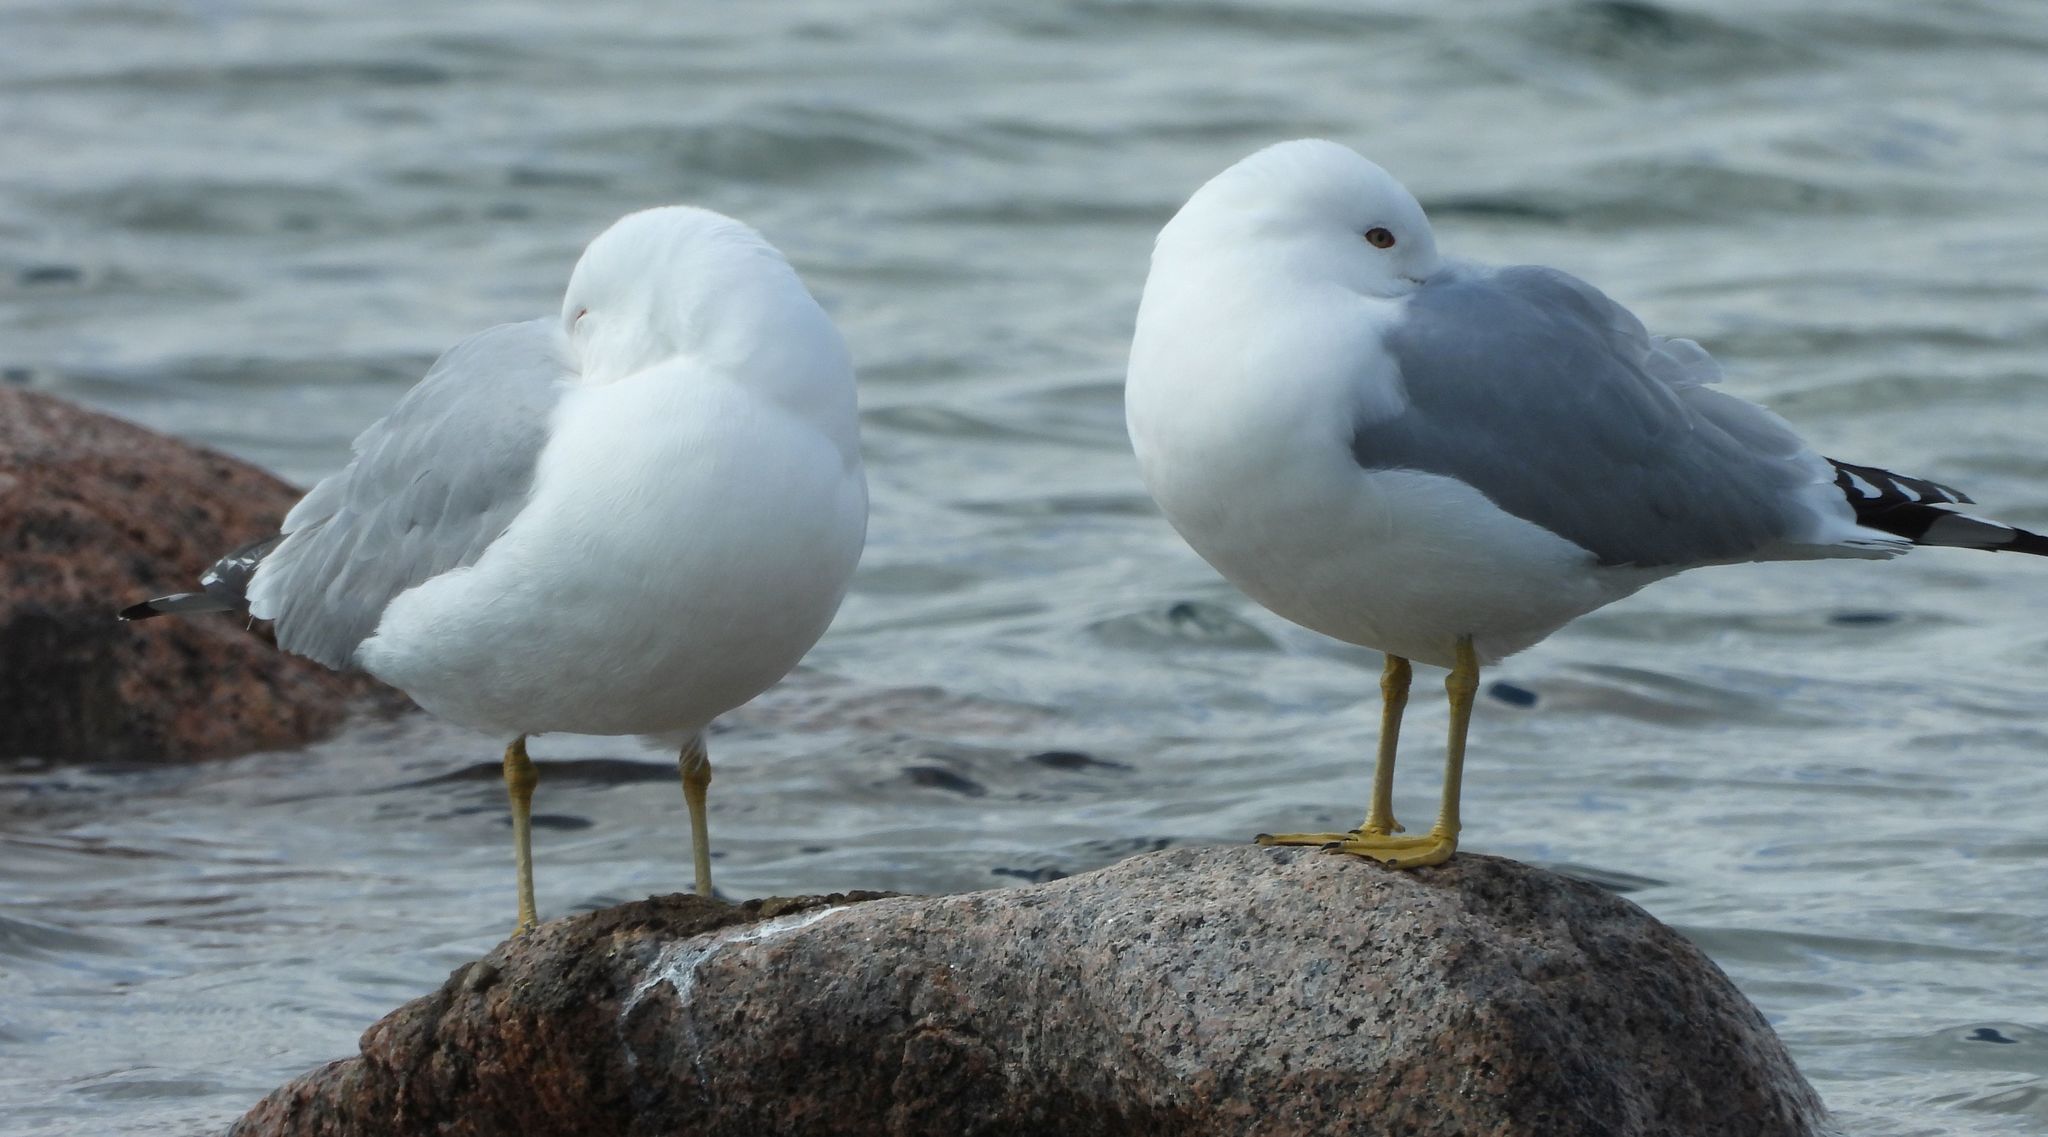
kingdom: Animalia
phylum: Chordata
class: Aves
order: Charadriiformes
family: Laridae
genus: Larus
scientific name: Larus delawarensis
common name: Ring-billed gull
